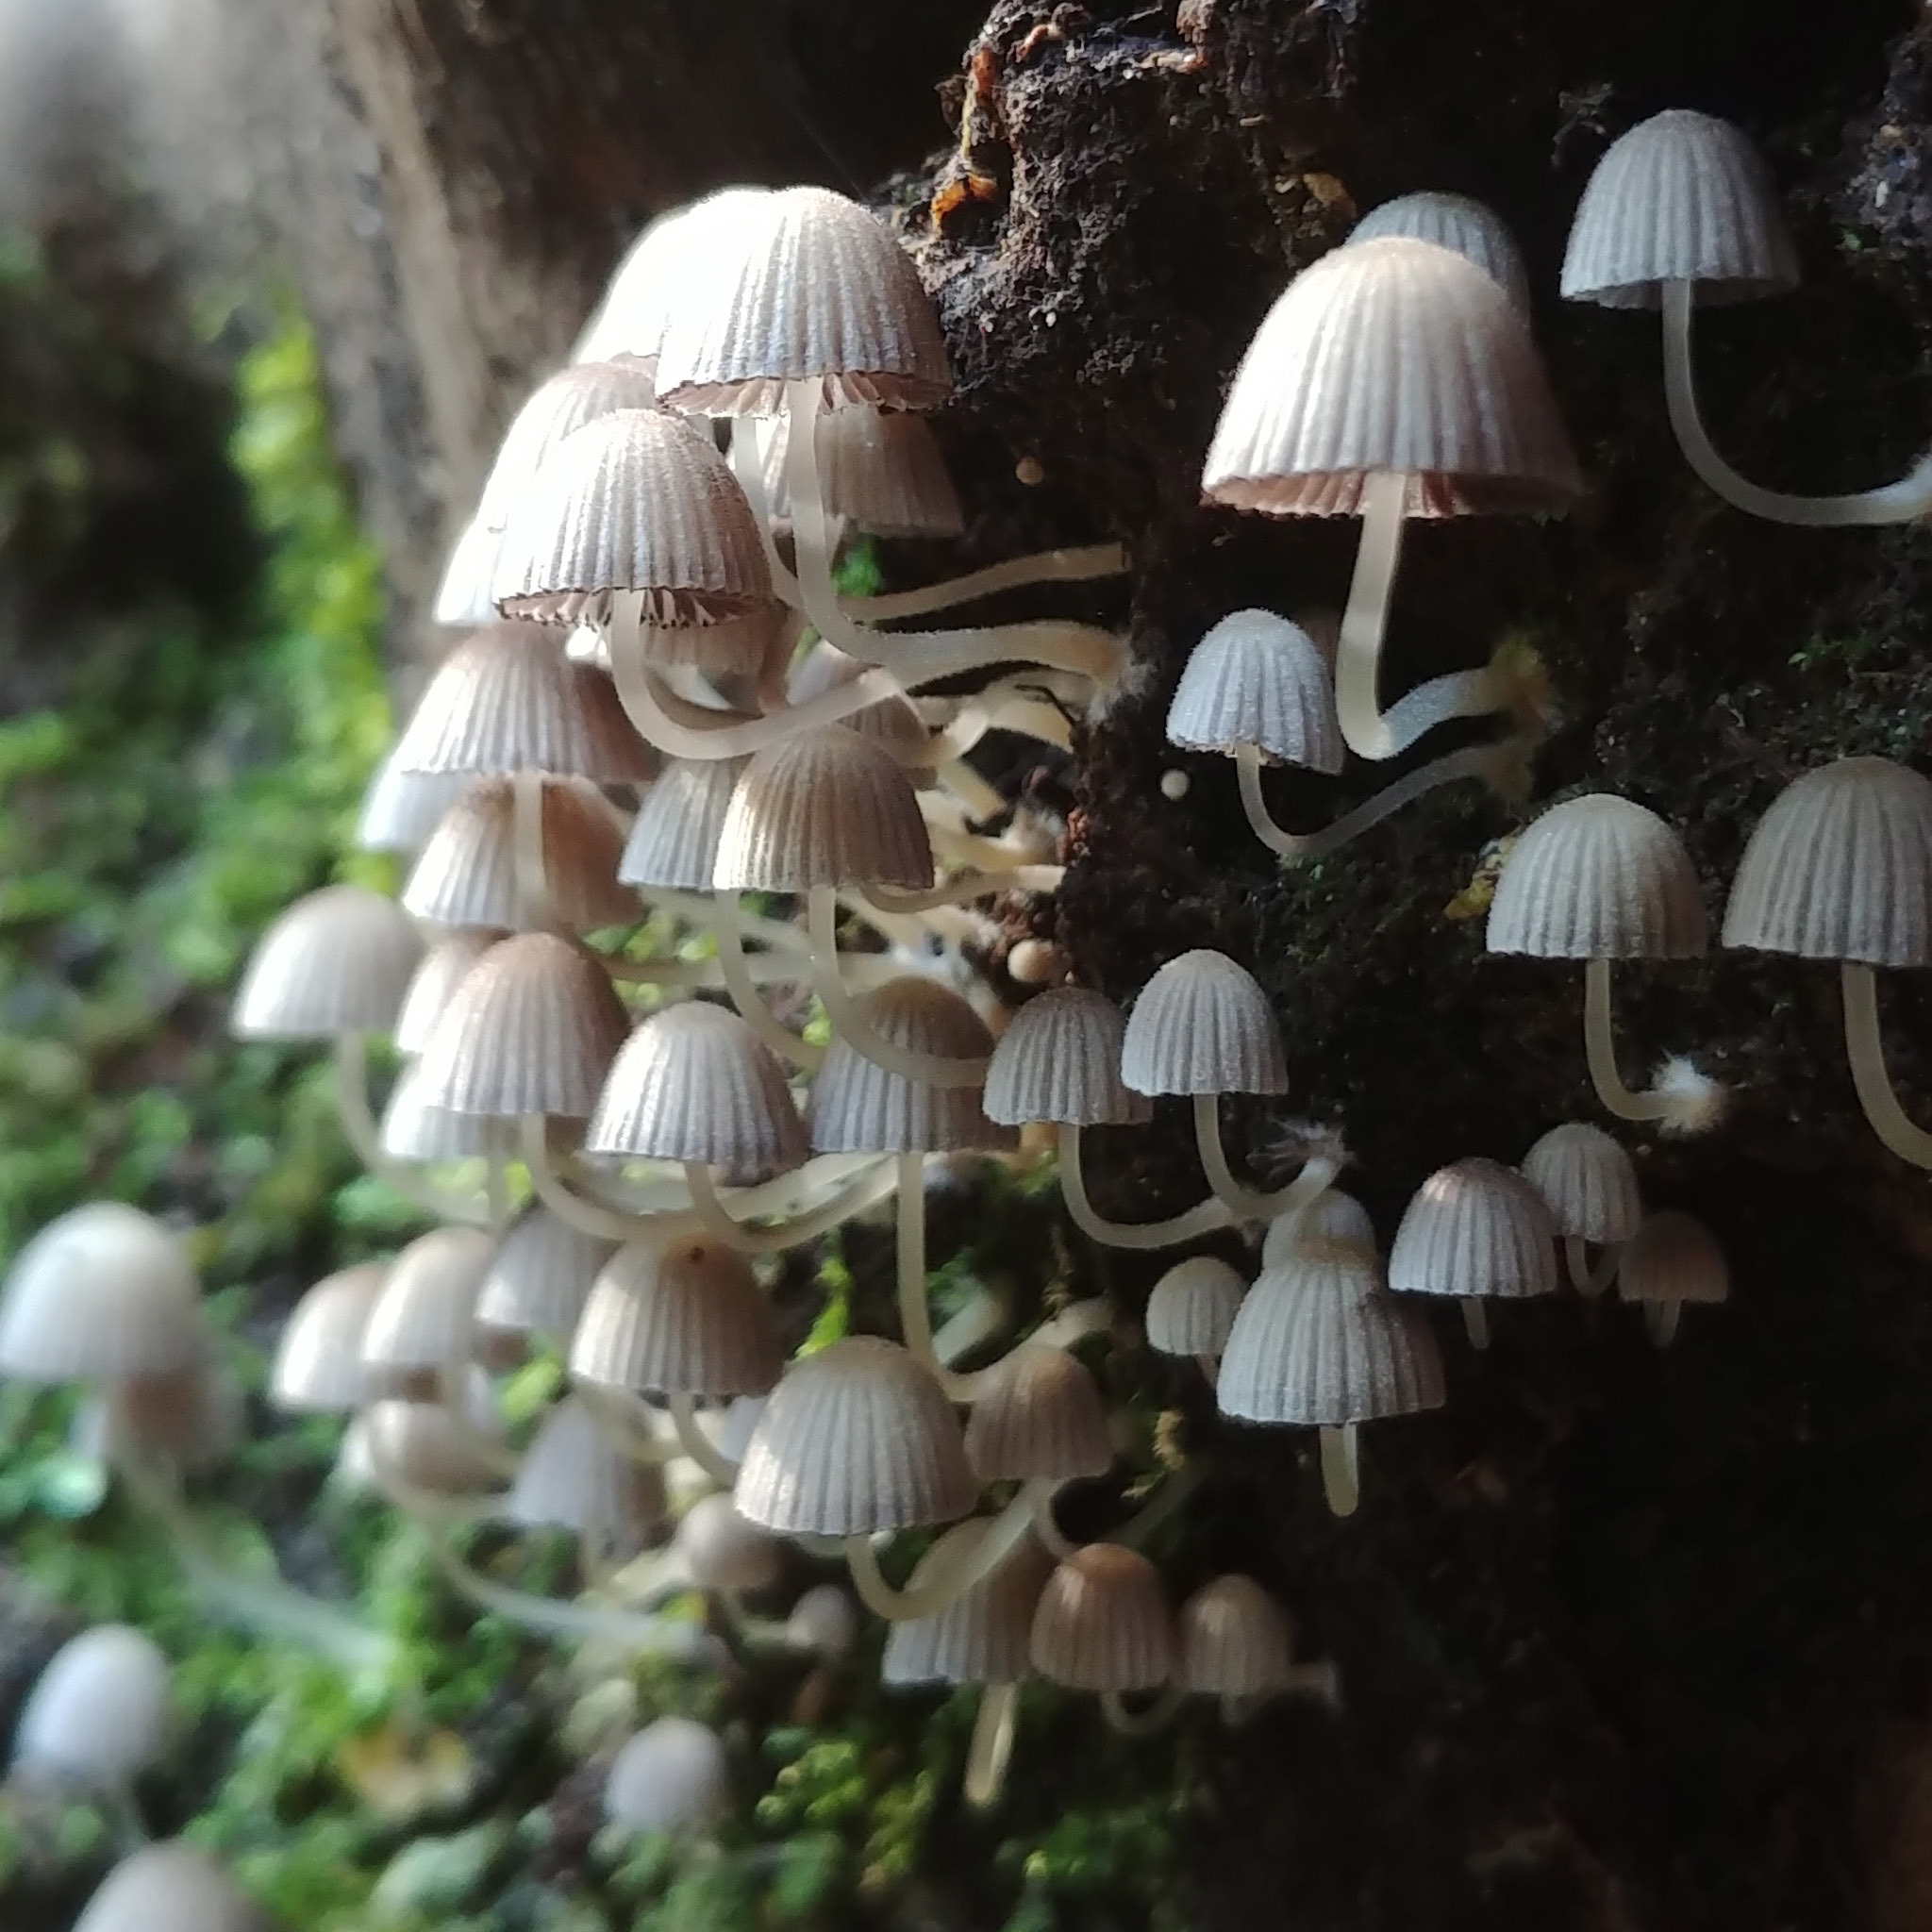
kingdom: Fungi
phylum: Basidiomycota
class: Agaricomycetes
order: Agaricales
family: Psathyrellaceae
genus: Coprinellus
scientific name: Coprinellus disseminatus
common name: Fairies' bonnets
